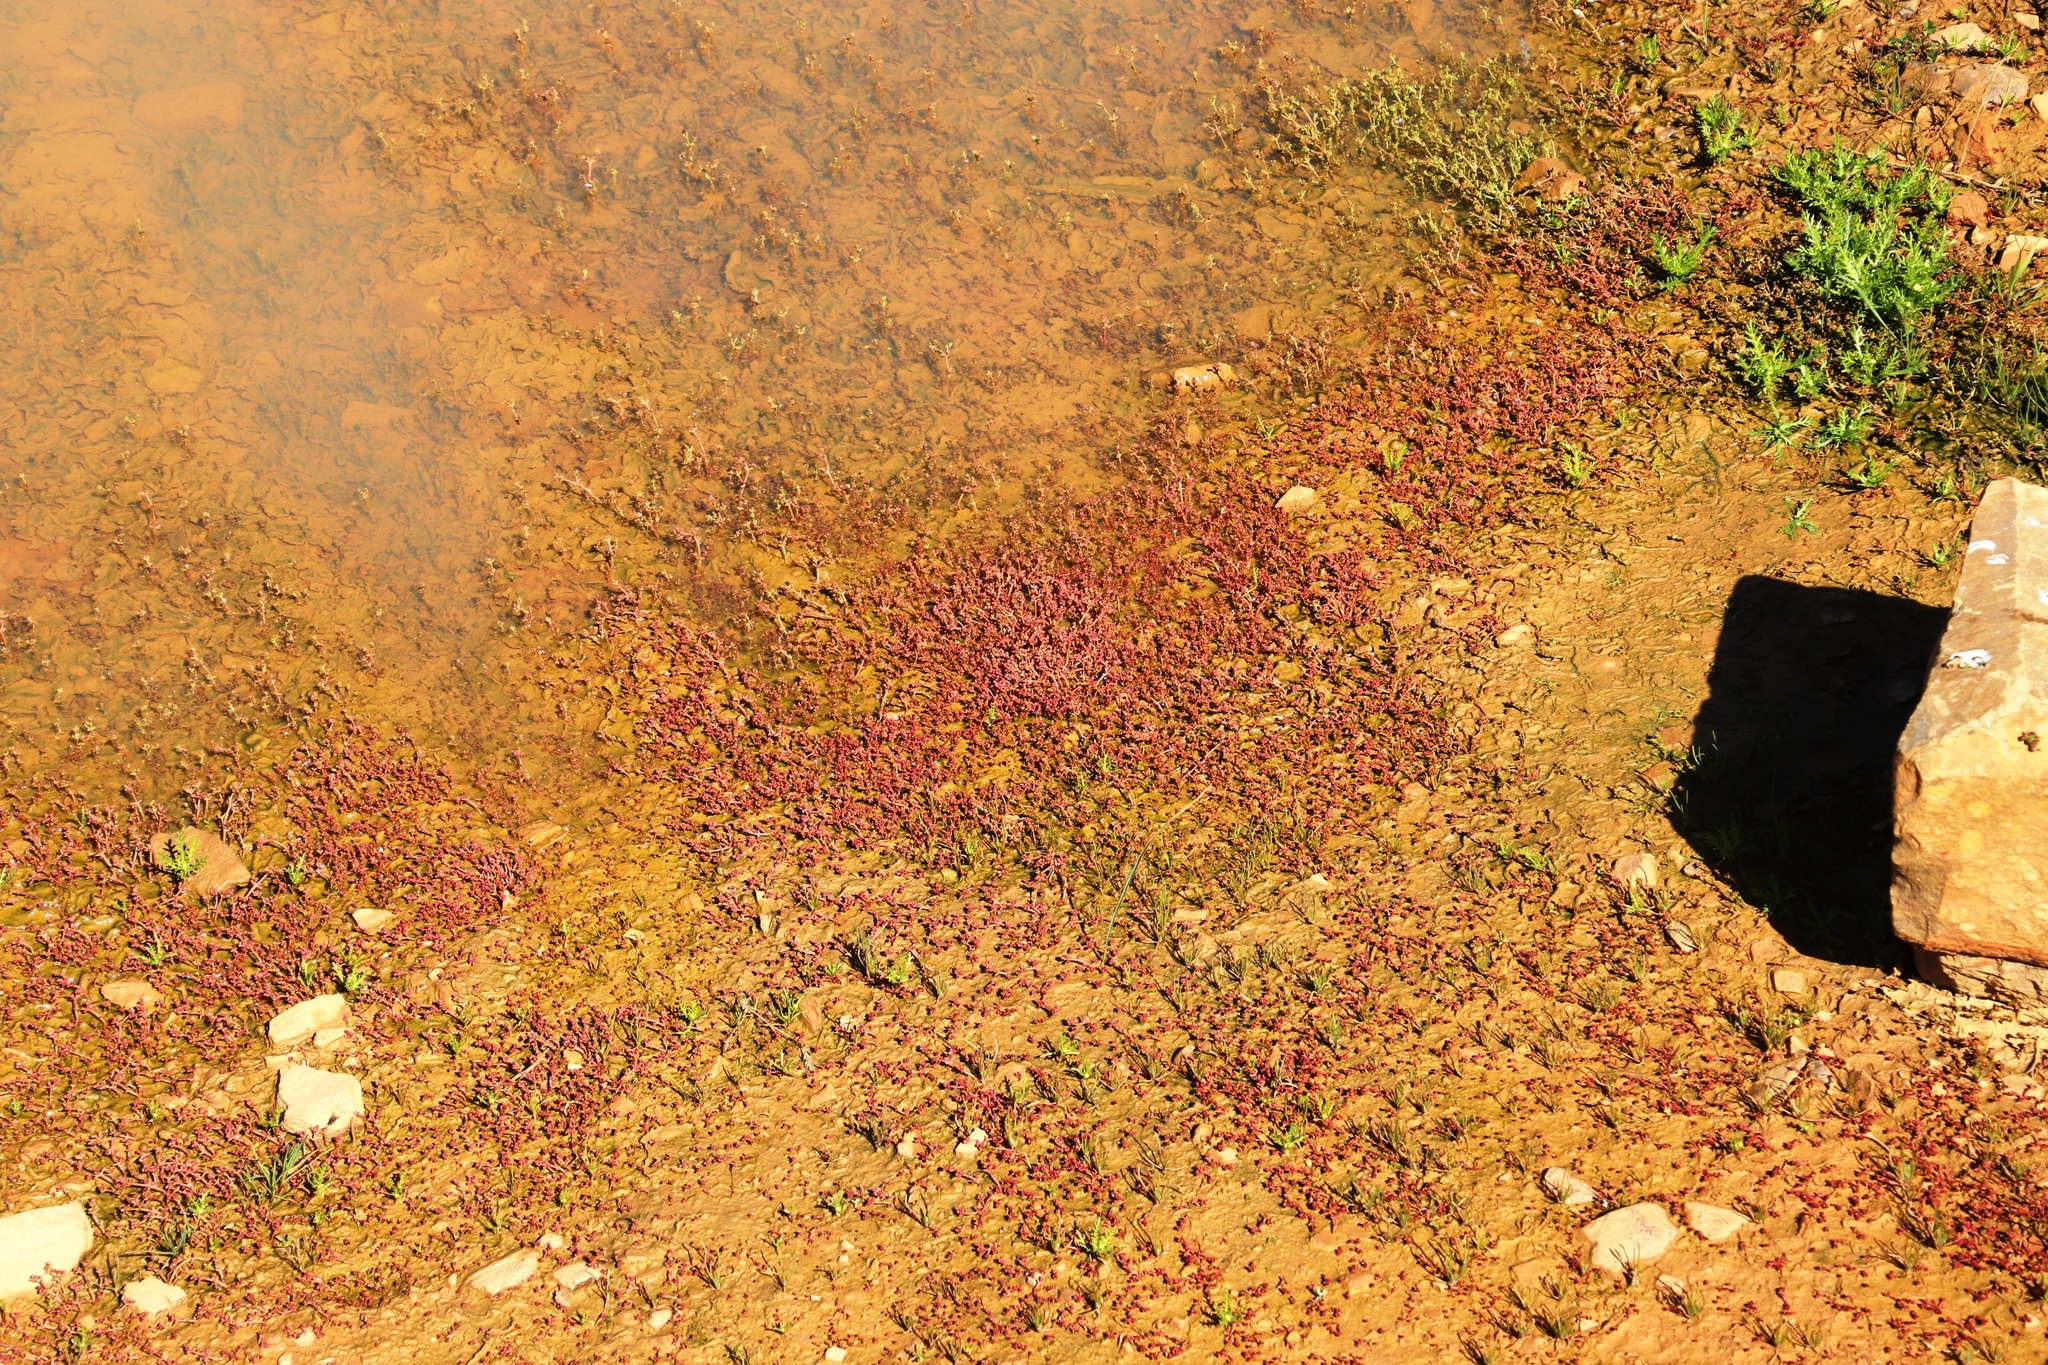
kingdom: Plantae
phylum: Tracheophyta
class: Magnoliopsida
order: Saxifragales
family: Crassulaceae
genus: Crassula
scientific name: Crassula vaillantii
